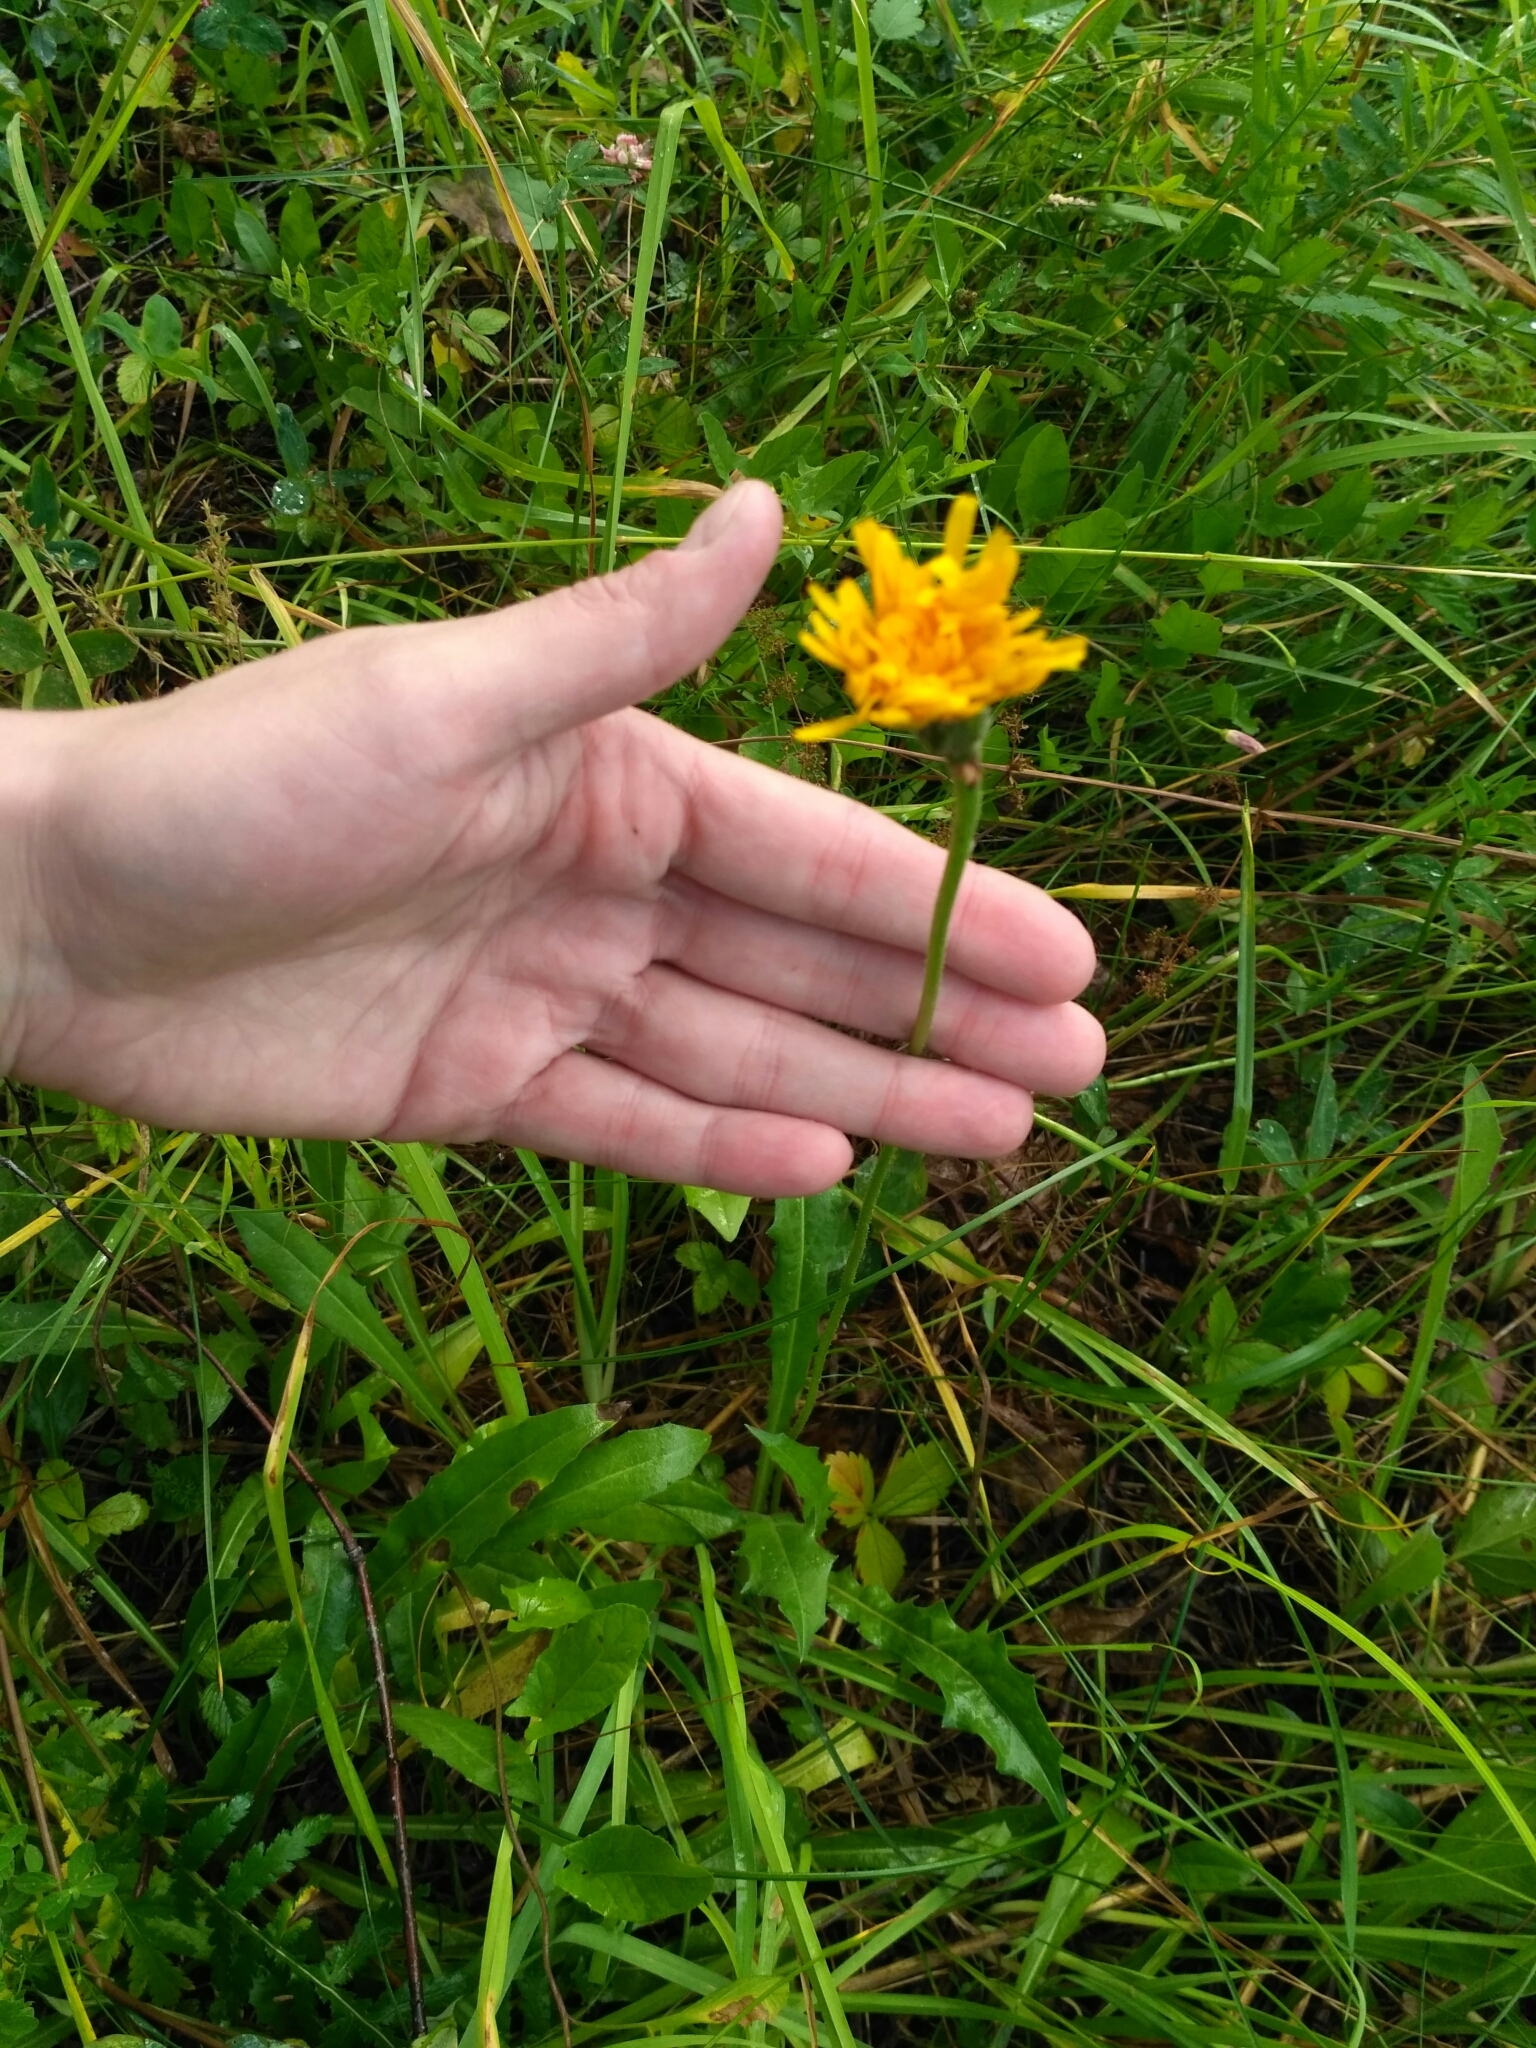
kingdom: Plantae
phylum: Tracheophyta
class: Magnoliopsida
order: Asterales
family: Asteraceae
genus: Leontodon
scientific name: Leontodon hispidus
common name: Rough hawkbit
